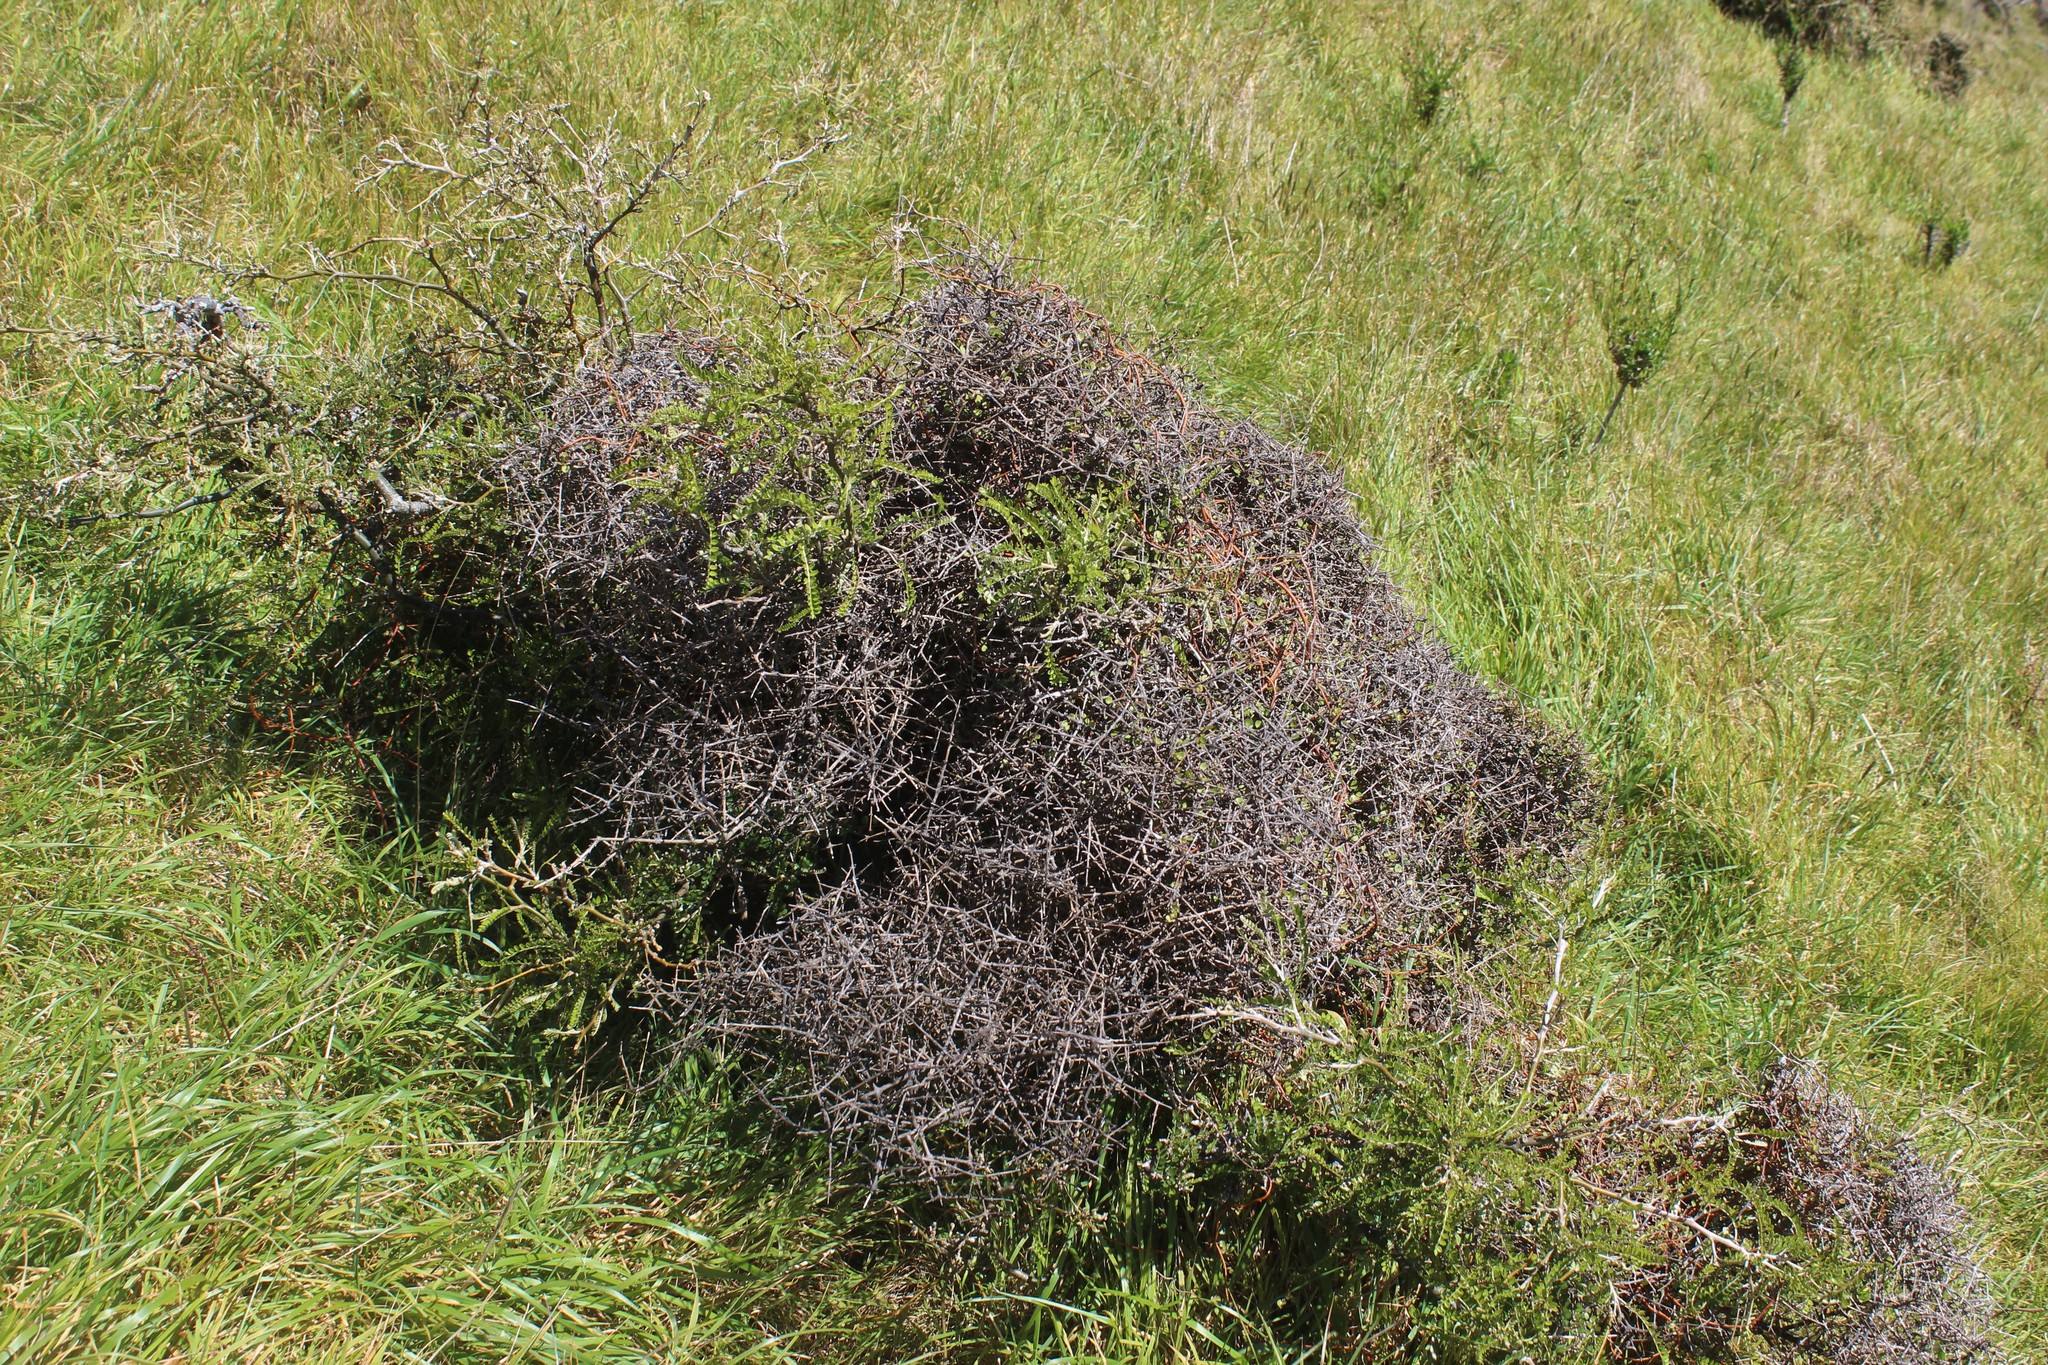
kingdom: Plantae
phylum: Tracheophyta
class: Magnoliopsida
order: Fabales
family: Fabaceae
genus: Sophora
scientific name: Sophora molloyi
